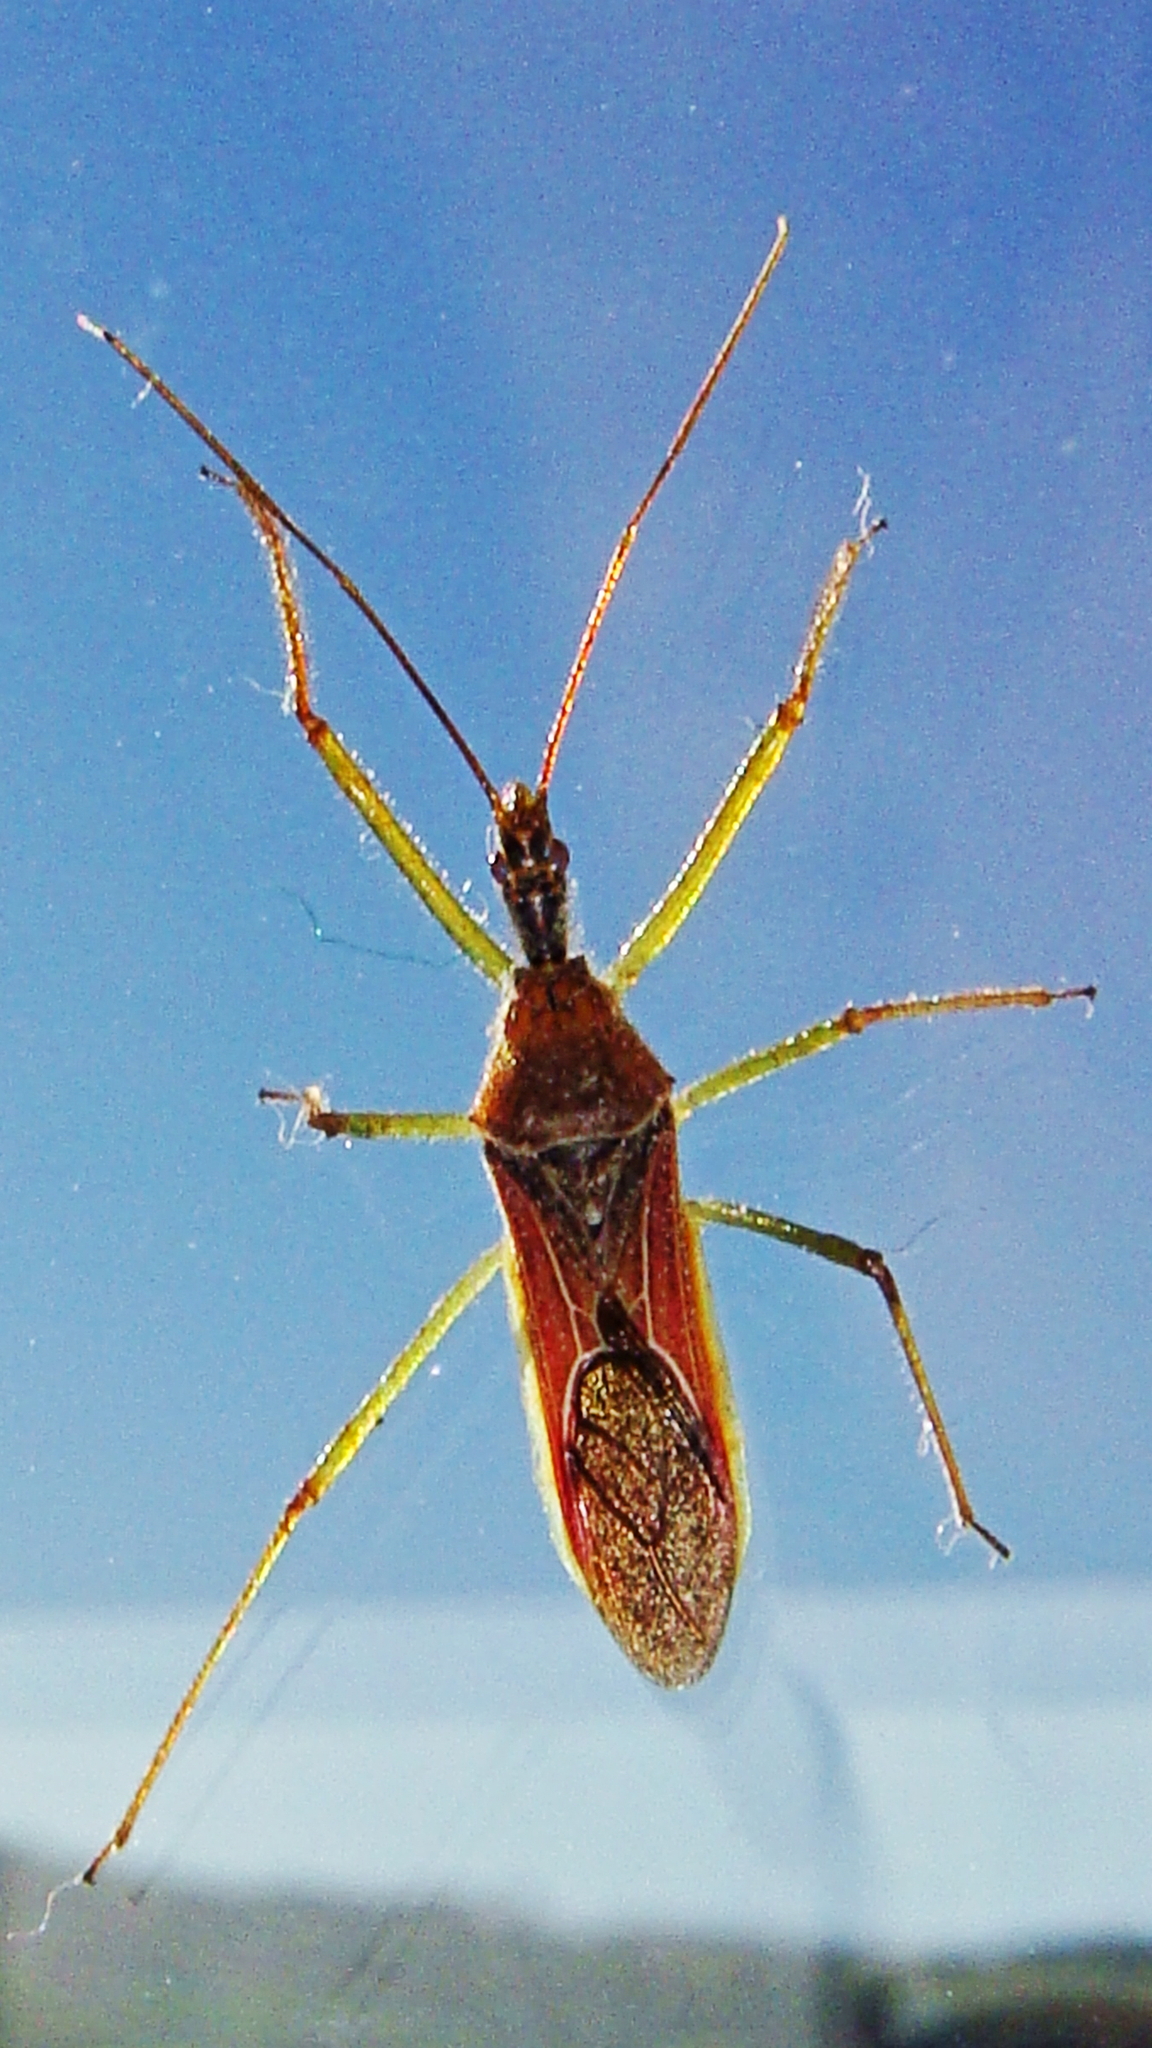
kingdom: Animalia
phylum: Arthropoda
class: Insecta
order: Hemiptera
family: Reduviidae
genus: Zelus
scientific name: Zelus renardii
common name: Assassin bug
